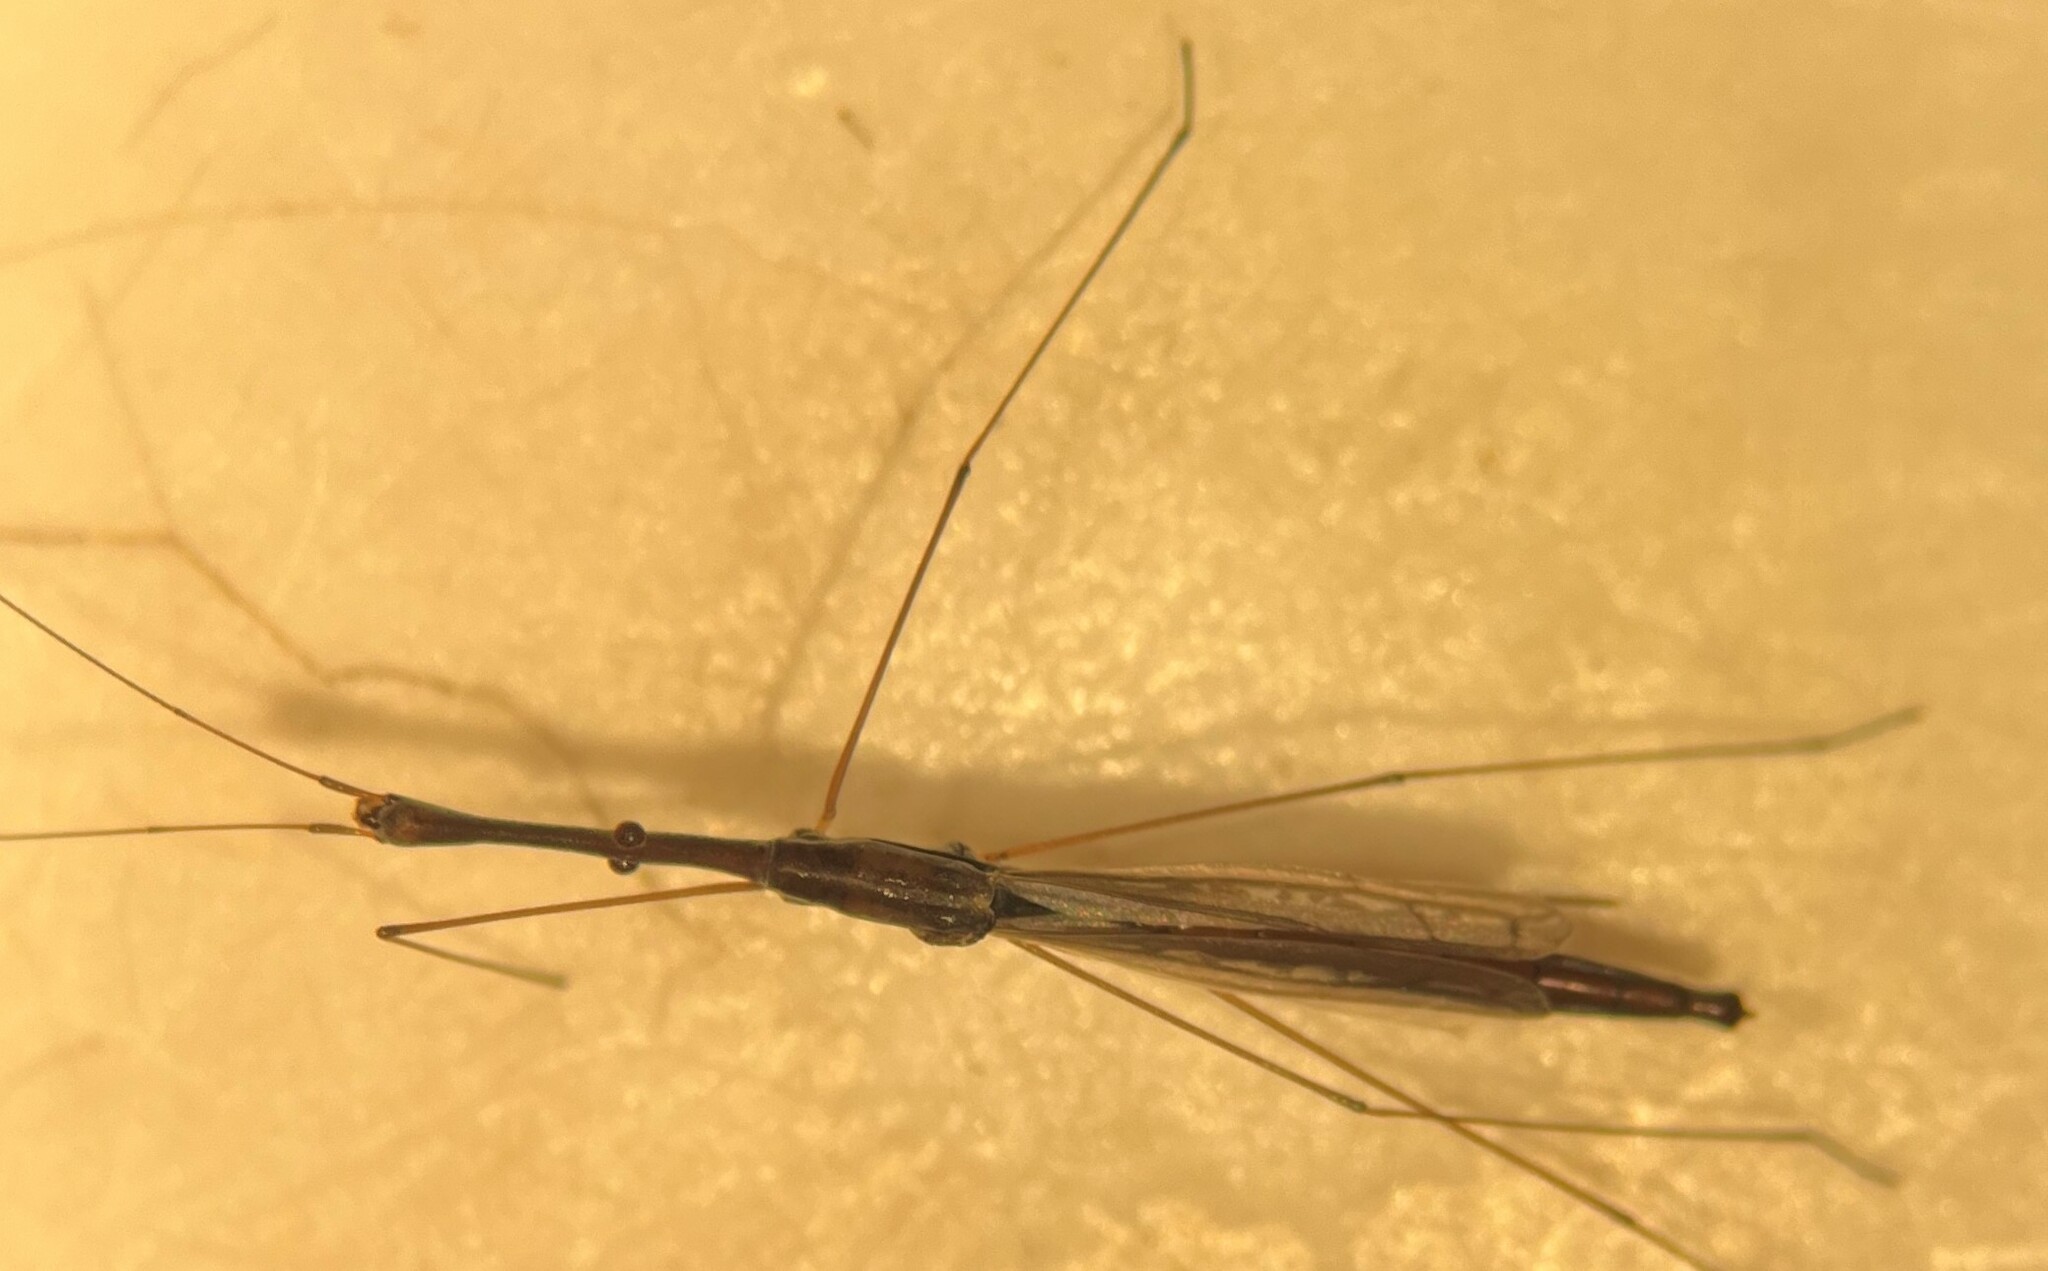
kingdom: Animalia
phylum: Arthropoda
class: Insecta
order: Hemiptera
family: Hydrometridae
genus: Hydrometra
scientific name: Hydrometra australis
